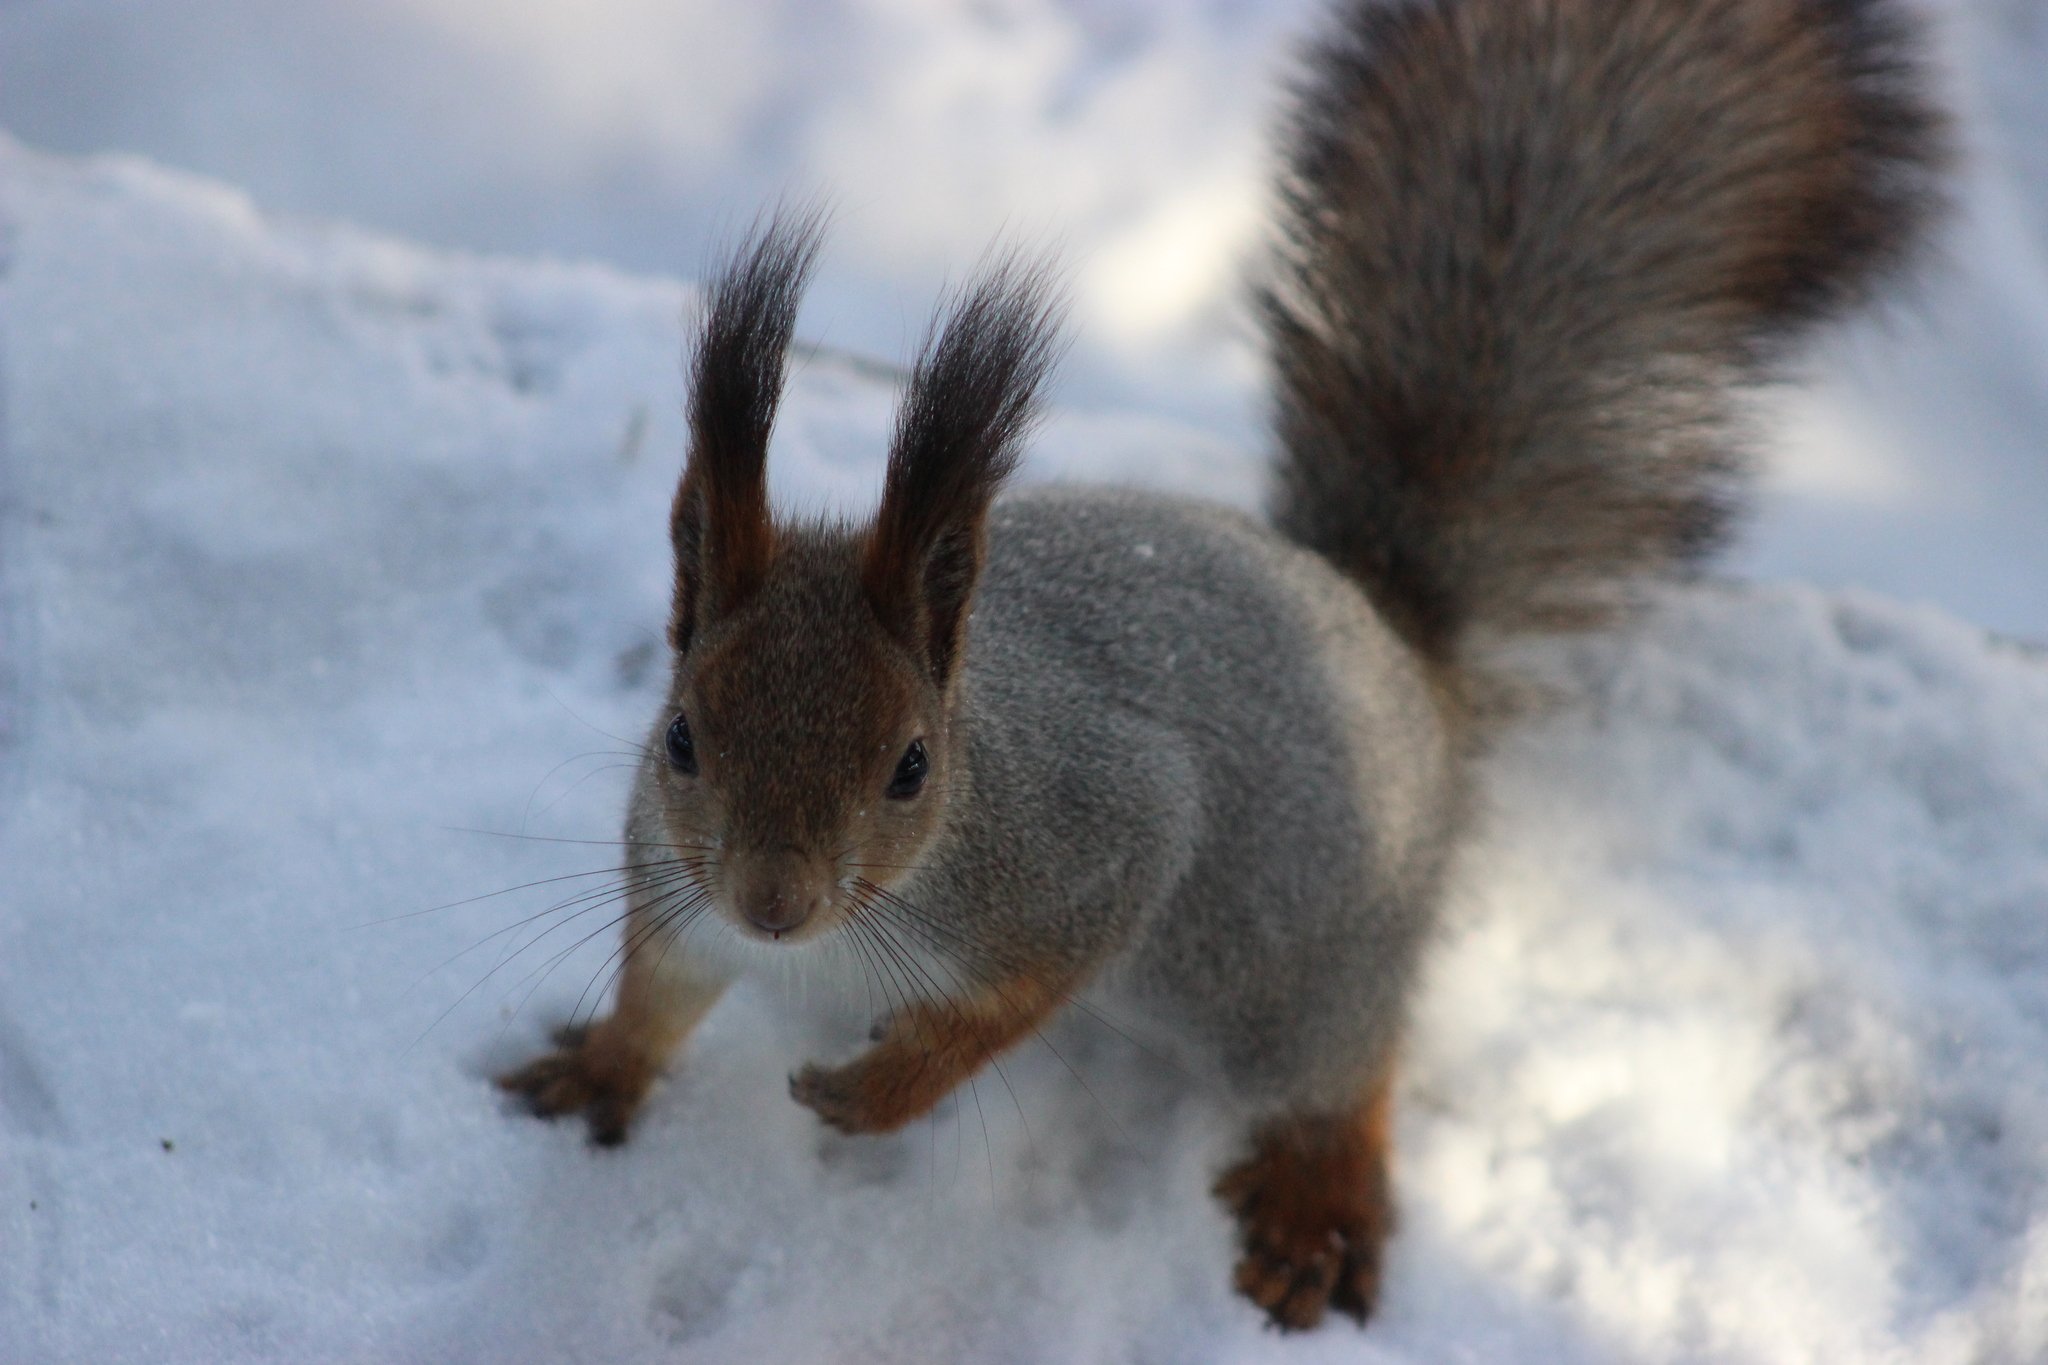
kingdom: Animalia
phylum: Chordata
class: Mammalia
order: Rodentia
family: Sciuridae
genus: Sciurus
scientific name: Sciurus vulgaris
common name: Eurasian red squirrel
